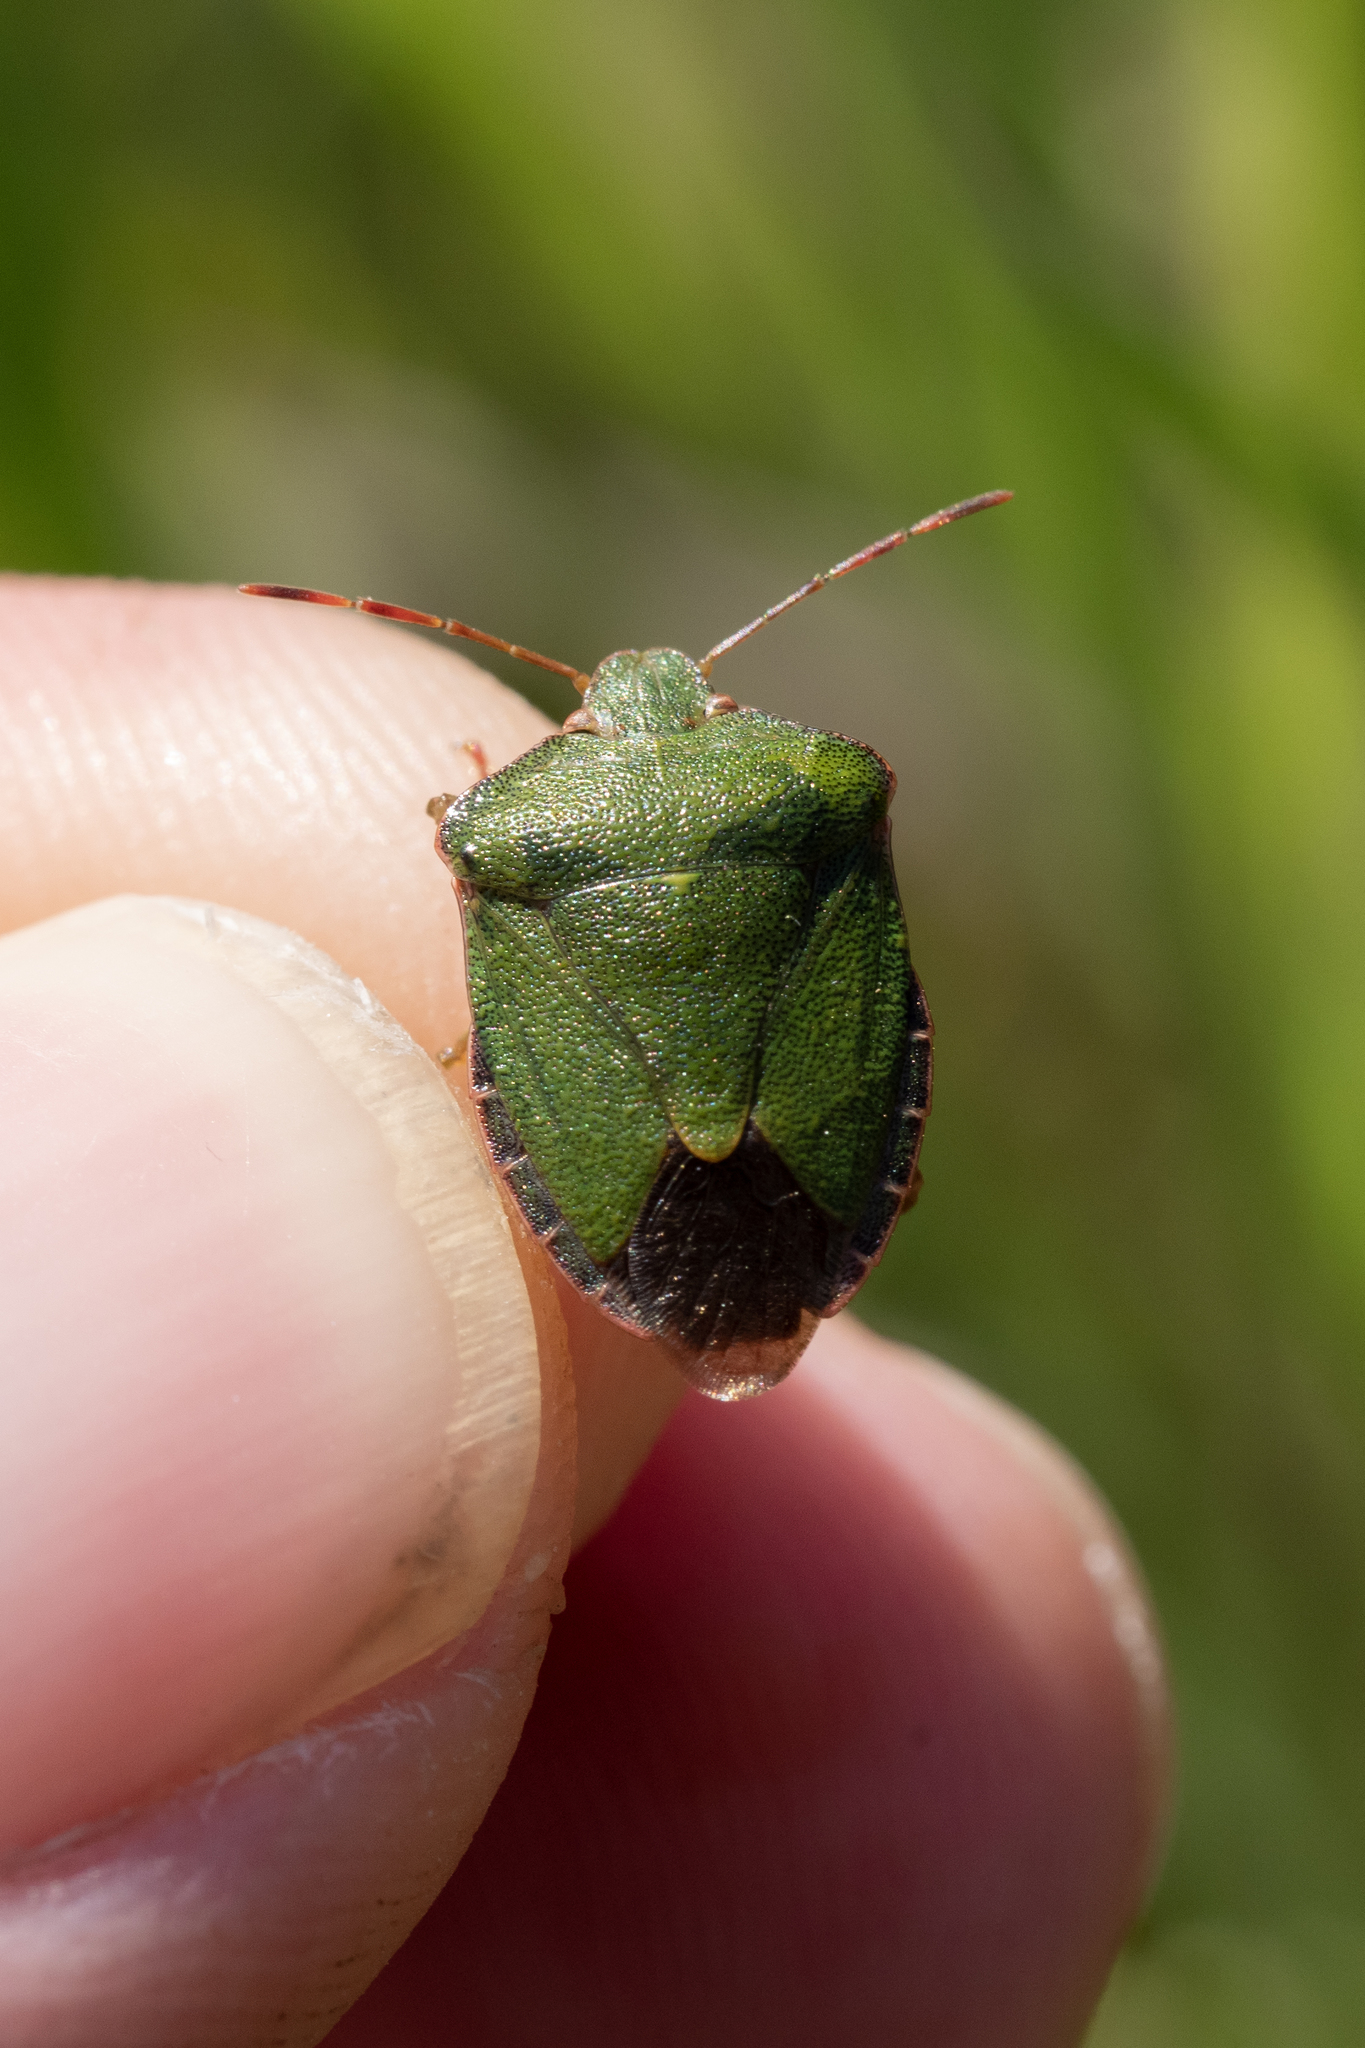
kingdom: Animalia
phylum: Arthropoda
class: Insecta
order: Hemiptera
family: Pentatomidae
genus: Palomena
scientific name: Palomena prasina
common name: Green shieldbug
